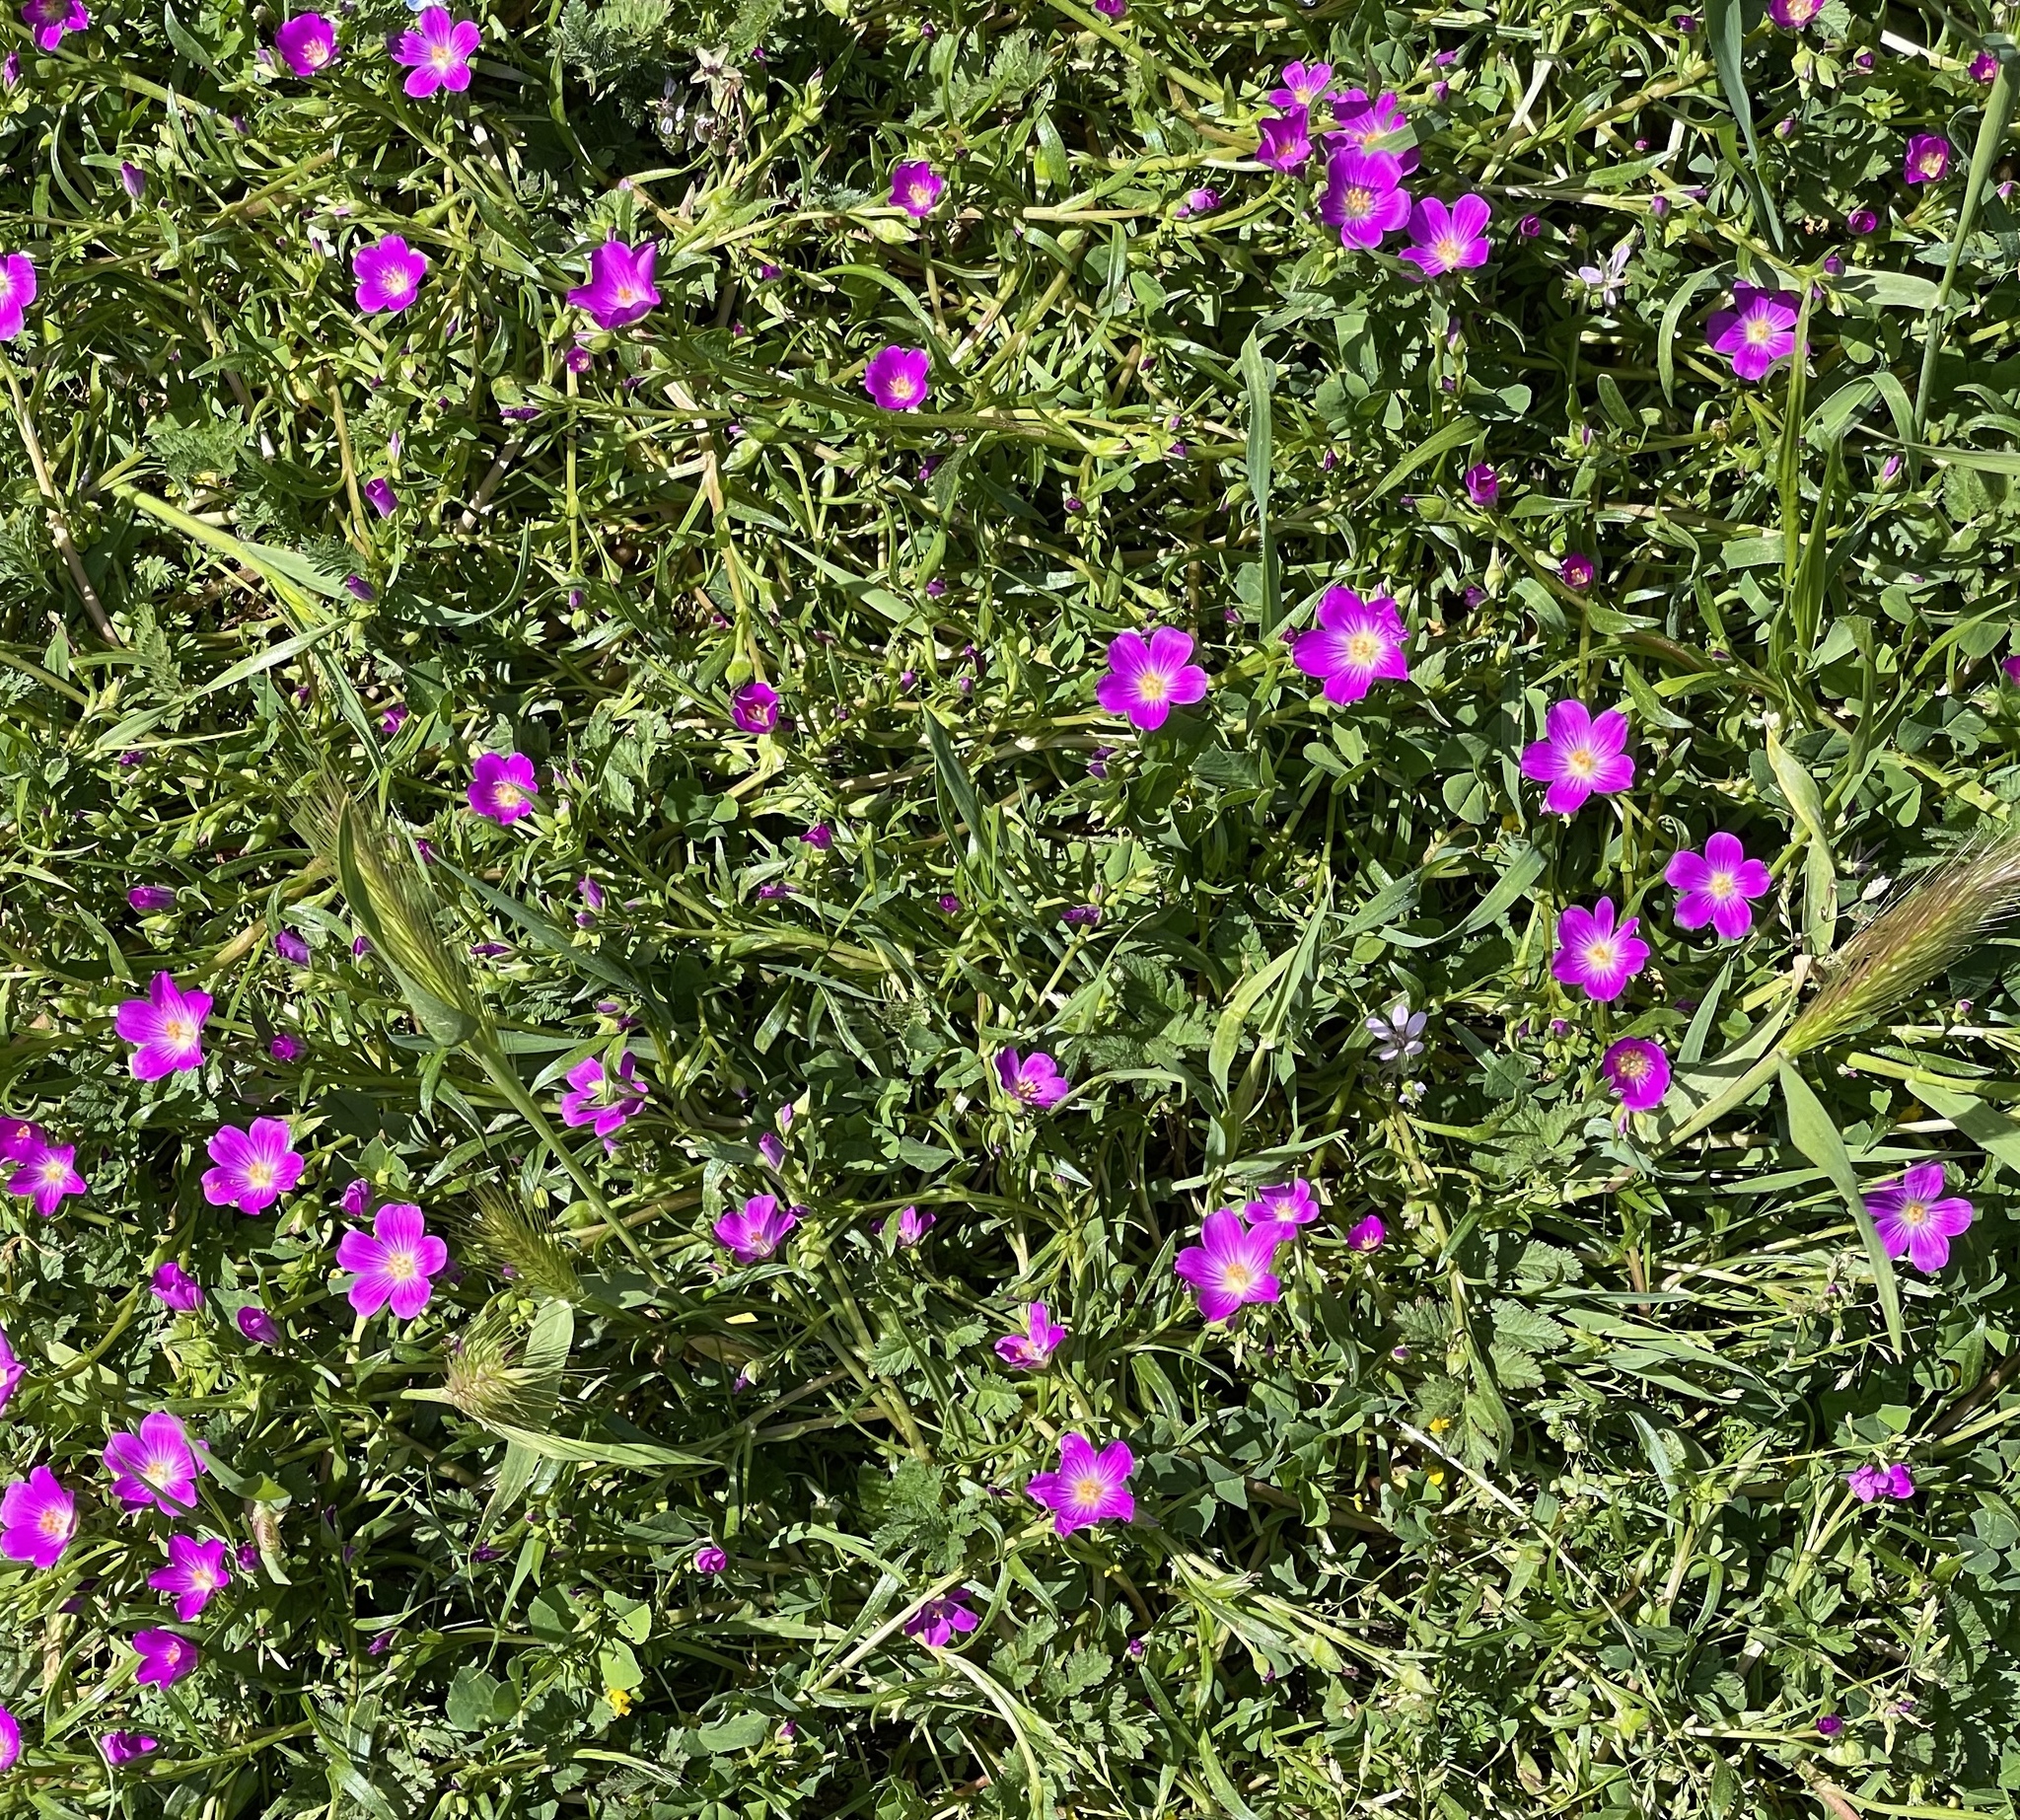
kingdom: Plantae
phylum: Tracheophyta
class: Magnoliopsida
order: Caryophyllales
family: Montiaceae
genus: Calandrinia
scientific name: Calandrinia menziesii
